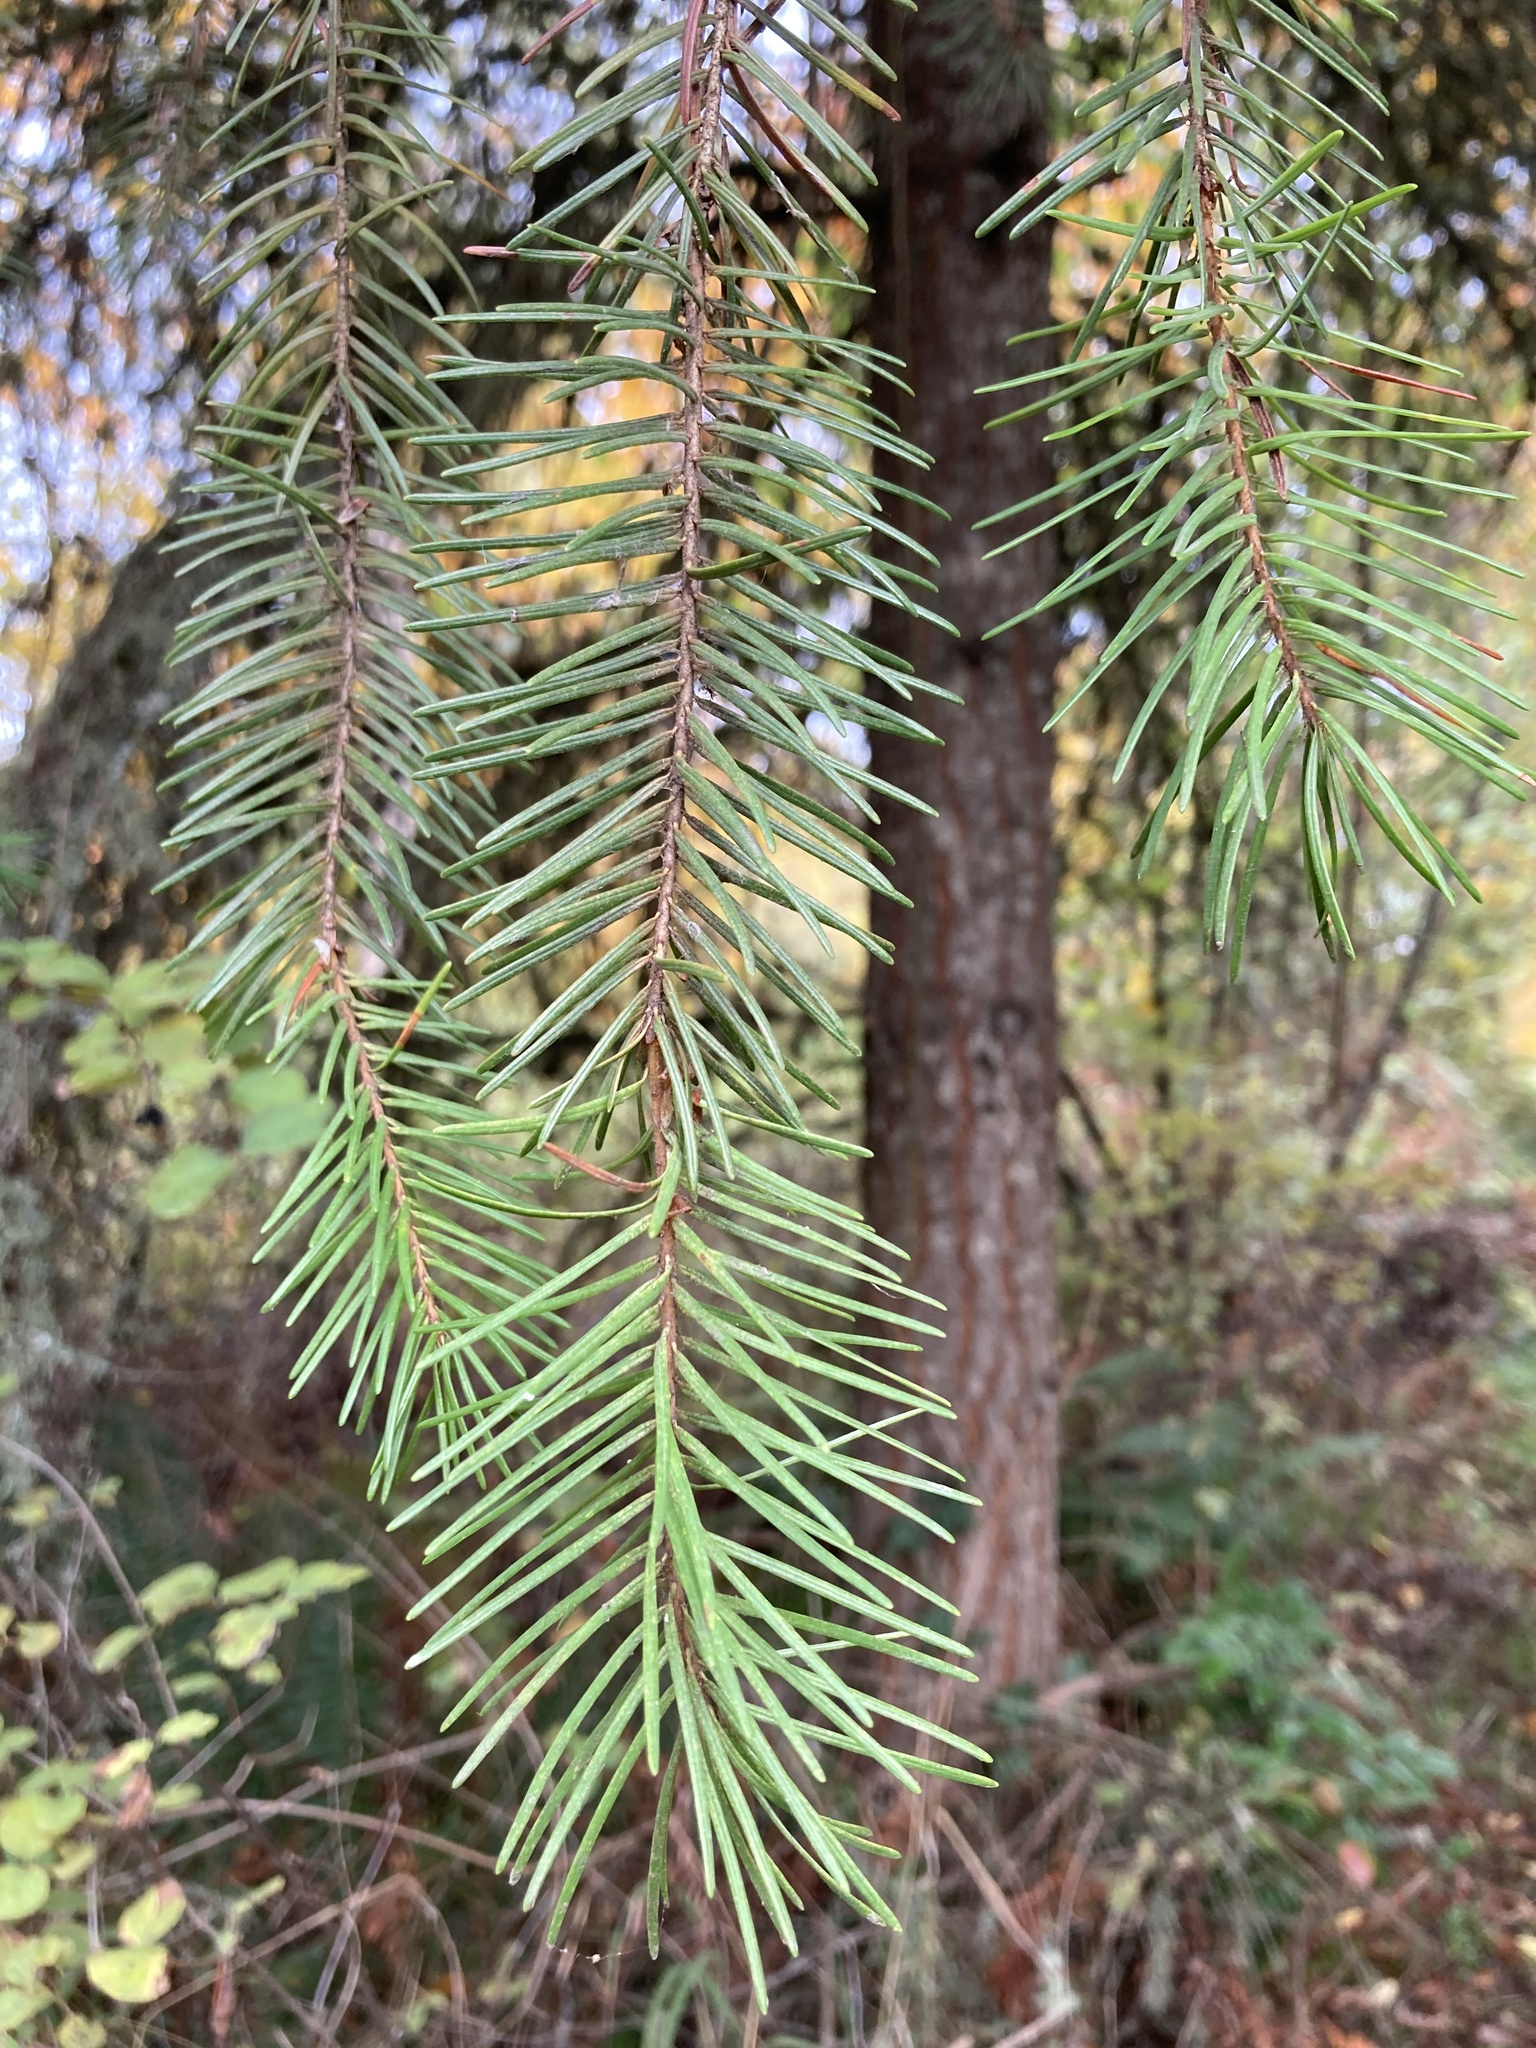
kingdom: Plantae
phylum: Tracheophyta
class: Pinopsida
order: Pinales
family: Pinaceae
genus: Pseudotsuga
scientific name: Pseudotsuga menziesii
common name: Douglas fir
